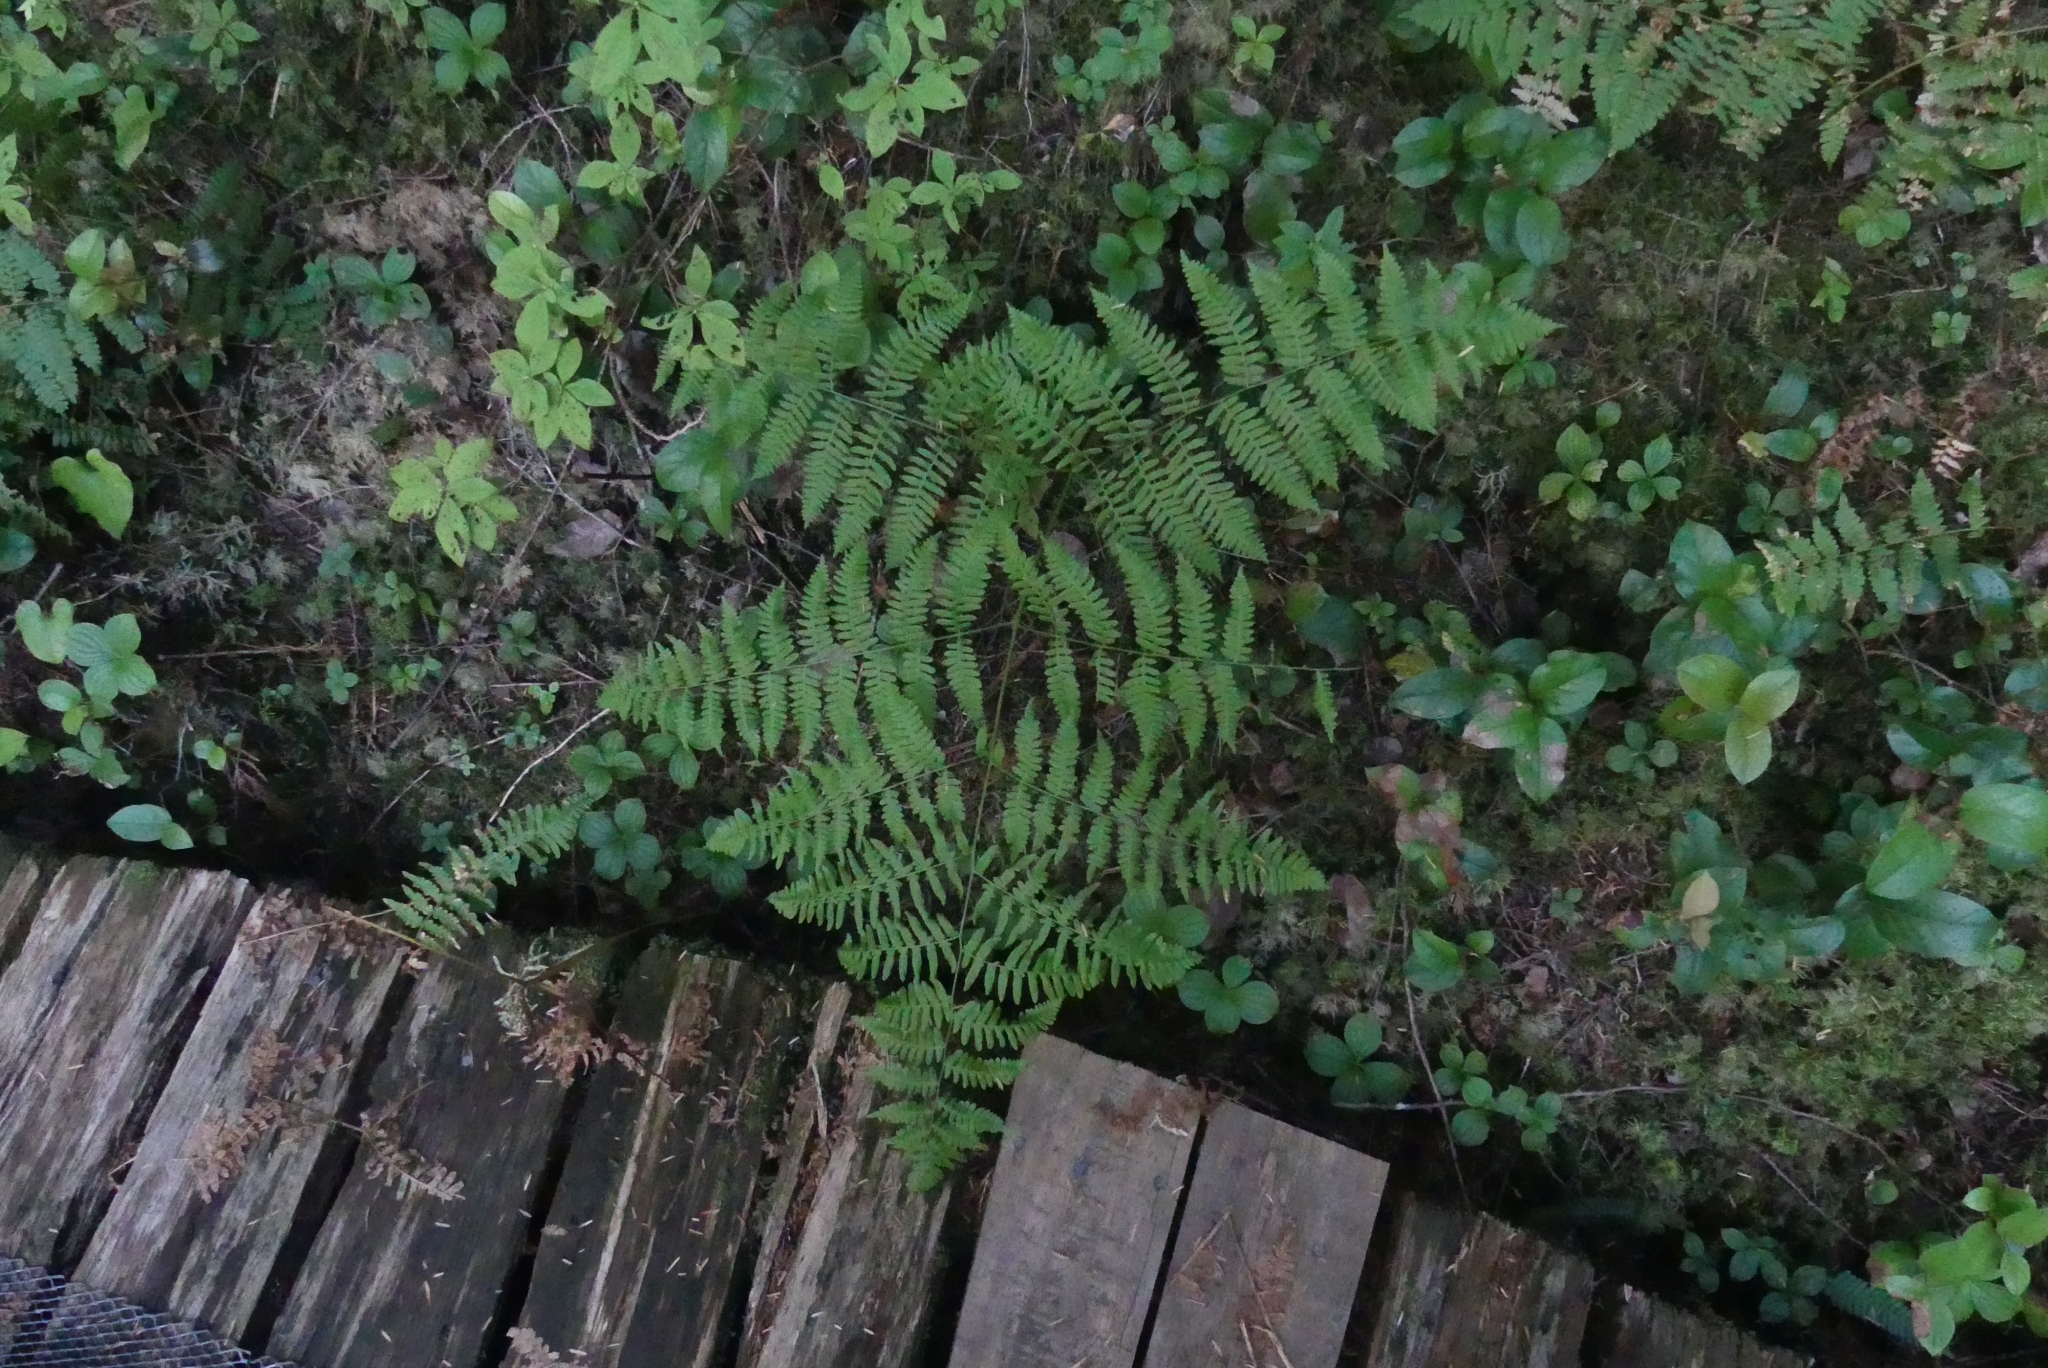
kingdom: Plantae
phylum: Tracheophyta
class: Polypodiopsida
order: Polypodiales
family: Dennstaedtiaceae
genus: Pteridium
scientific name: Pteridium aquilinum
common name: Bracken
